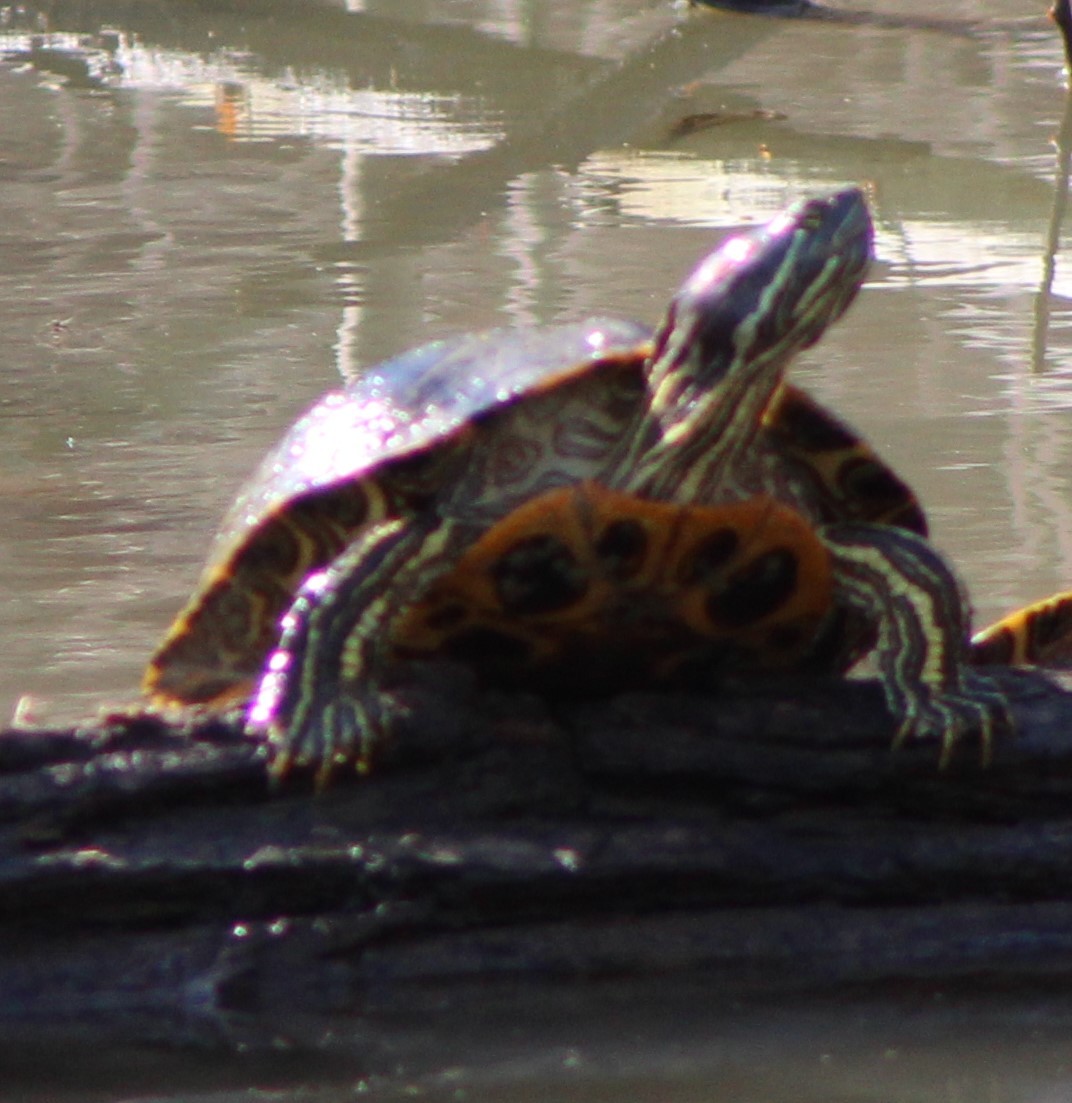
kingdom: Animalia
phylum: Chordata
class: Testudines
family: Emydidae
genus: Trachemys
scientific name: Trachemys scripta
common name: Slider
